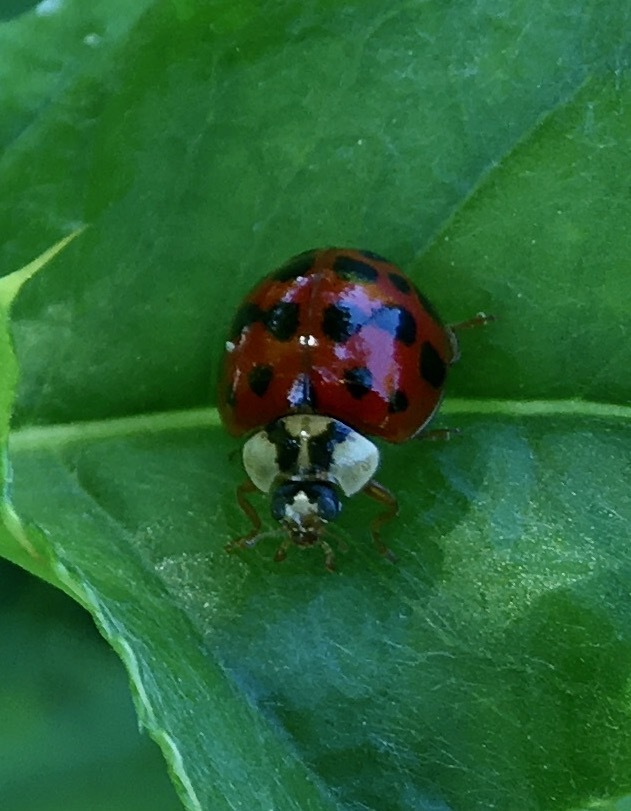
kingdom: Animalia
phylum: Arthropoda
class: Insecta
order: Coleoptera
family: Coccinellidae
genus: Harmonia
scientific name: Harmonia axyridis
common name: Harlequin ladybird
